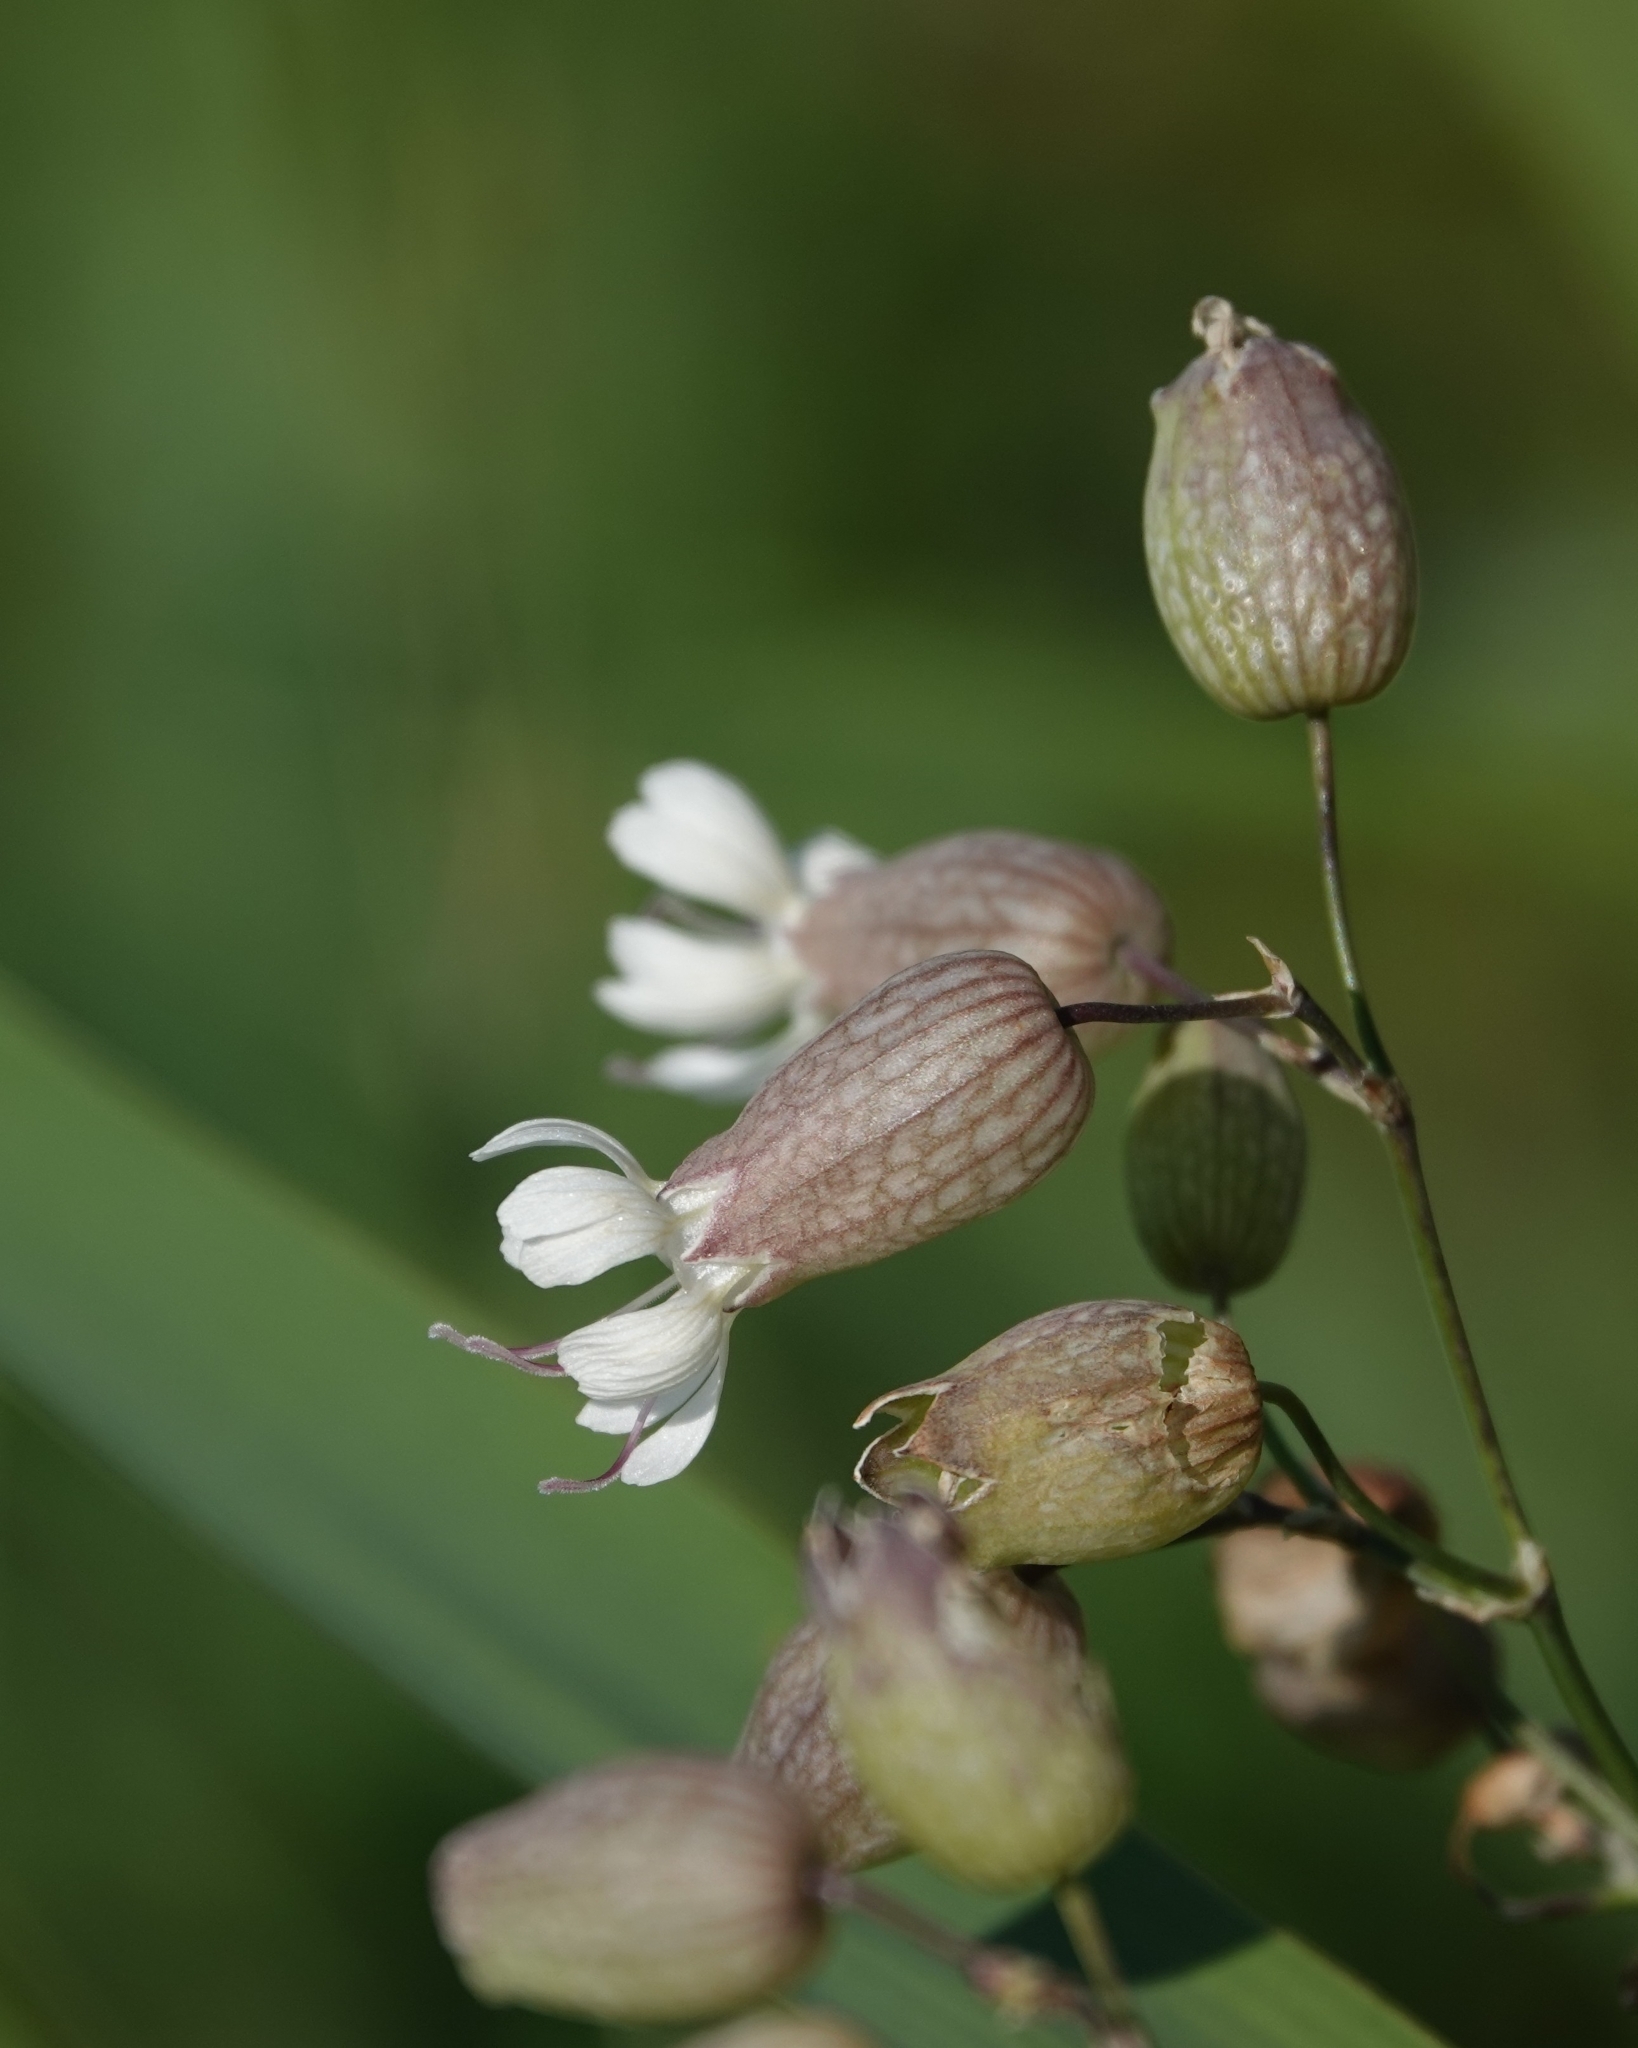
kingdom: Plantae
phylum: Tracheophyta
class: Magnoliopsida
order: Caryophyllales
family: Caryophyllaceae
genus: Silene
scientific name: Silene vulgaris
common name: Bladder campion
